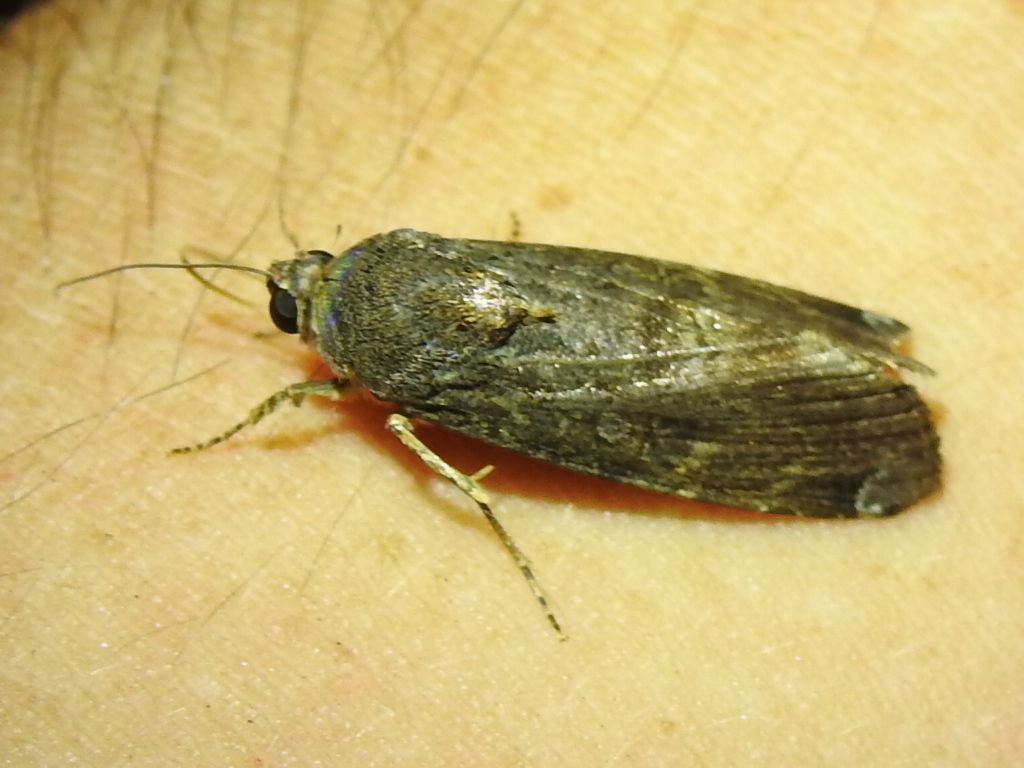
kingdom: Animalia
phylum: Arthropoda
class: Insecta
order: Lepidoptera
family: Noctuidae
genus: Magusa
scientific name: Magusa divaricata
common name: Orb narrow-winged moth
